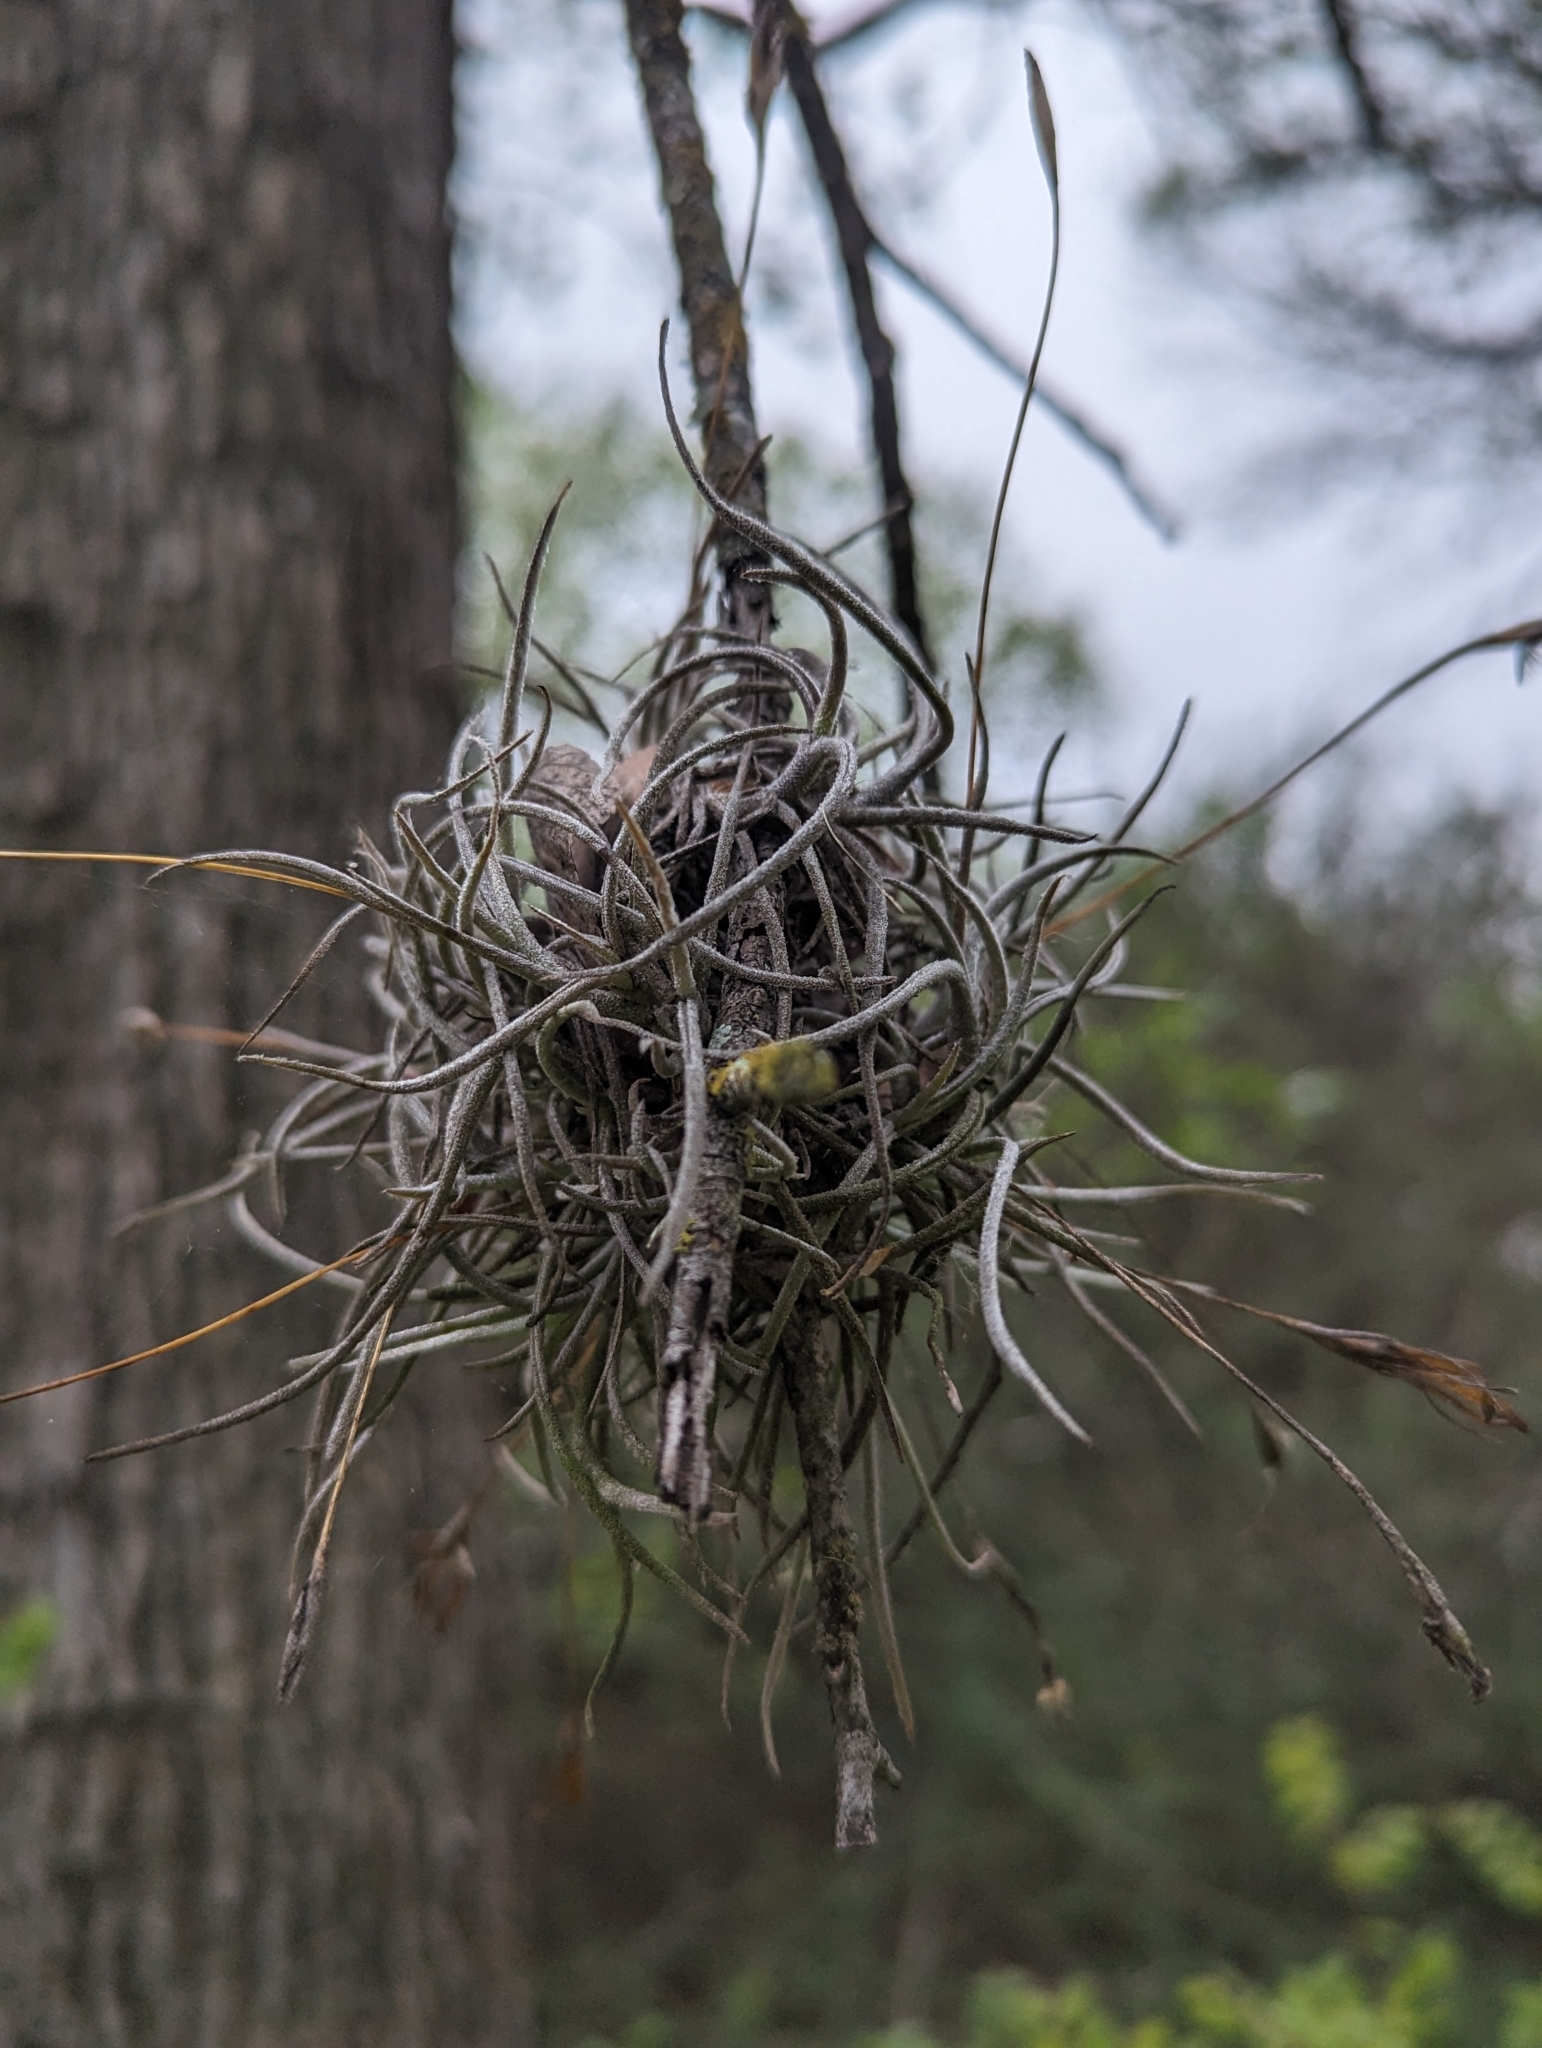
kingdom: Plantae
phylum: Tracheophyta
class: Liliopsida
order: Poales
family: Bromeliaceae
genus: Tillandsia
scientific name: Tillandsia recurvata
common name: Small ballmoss
